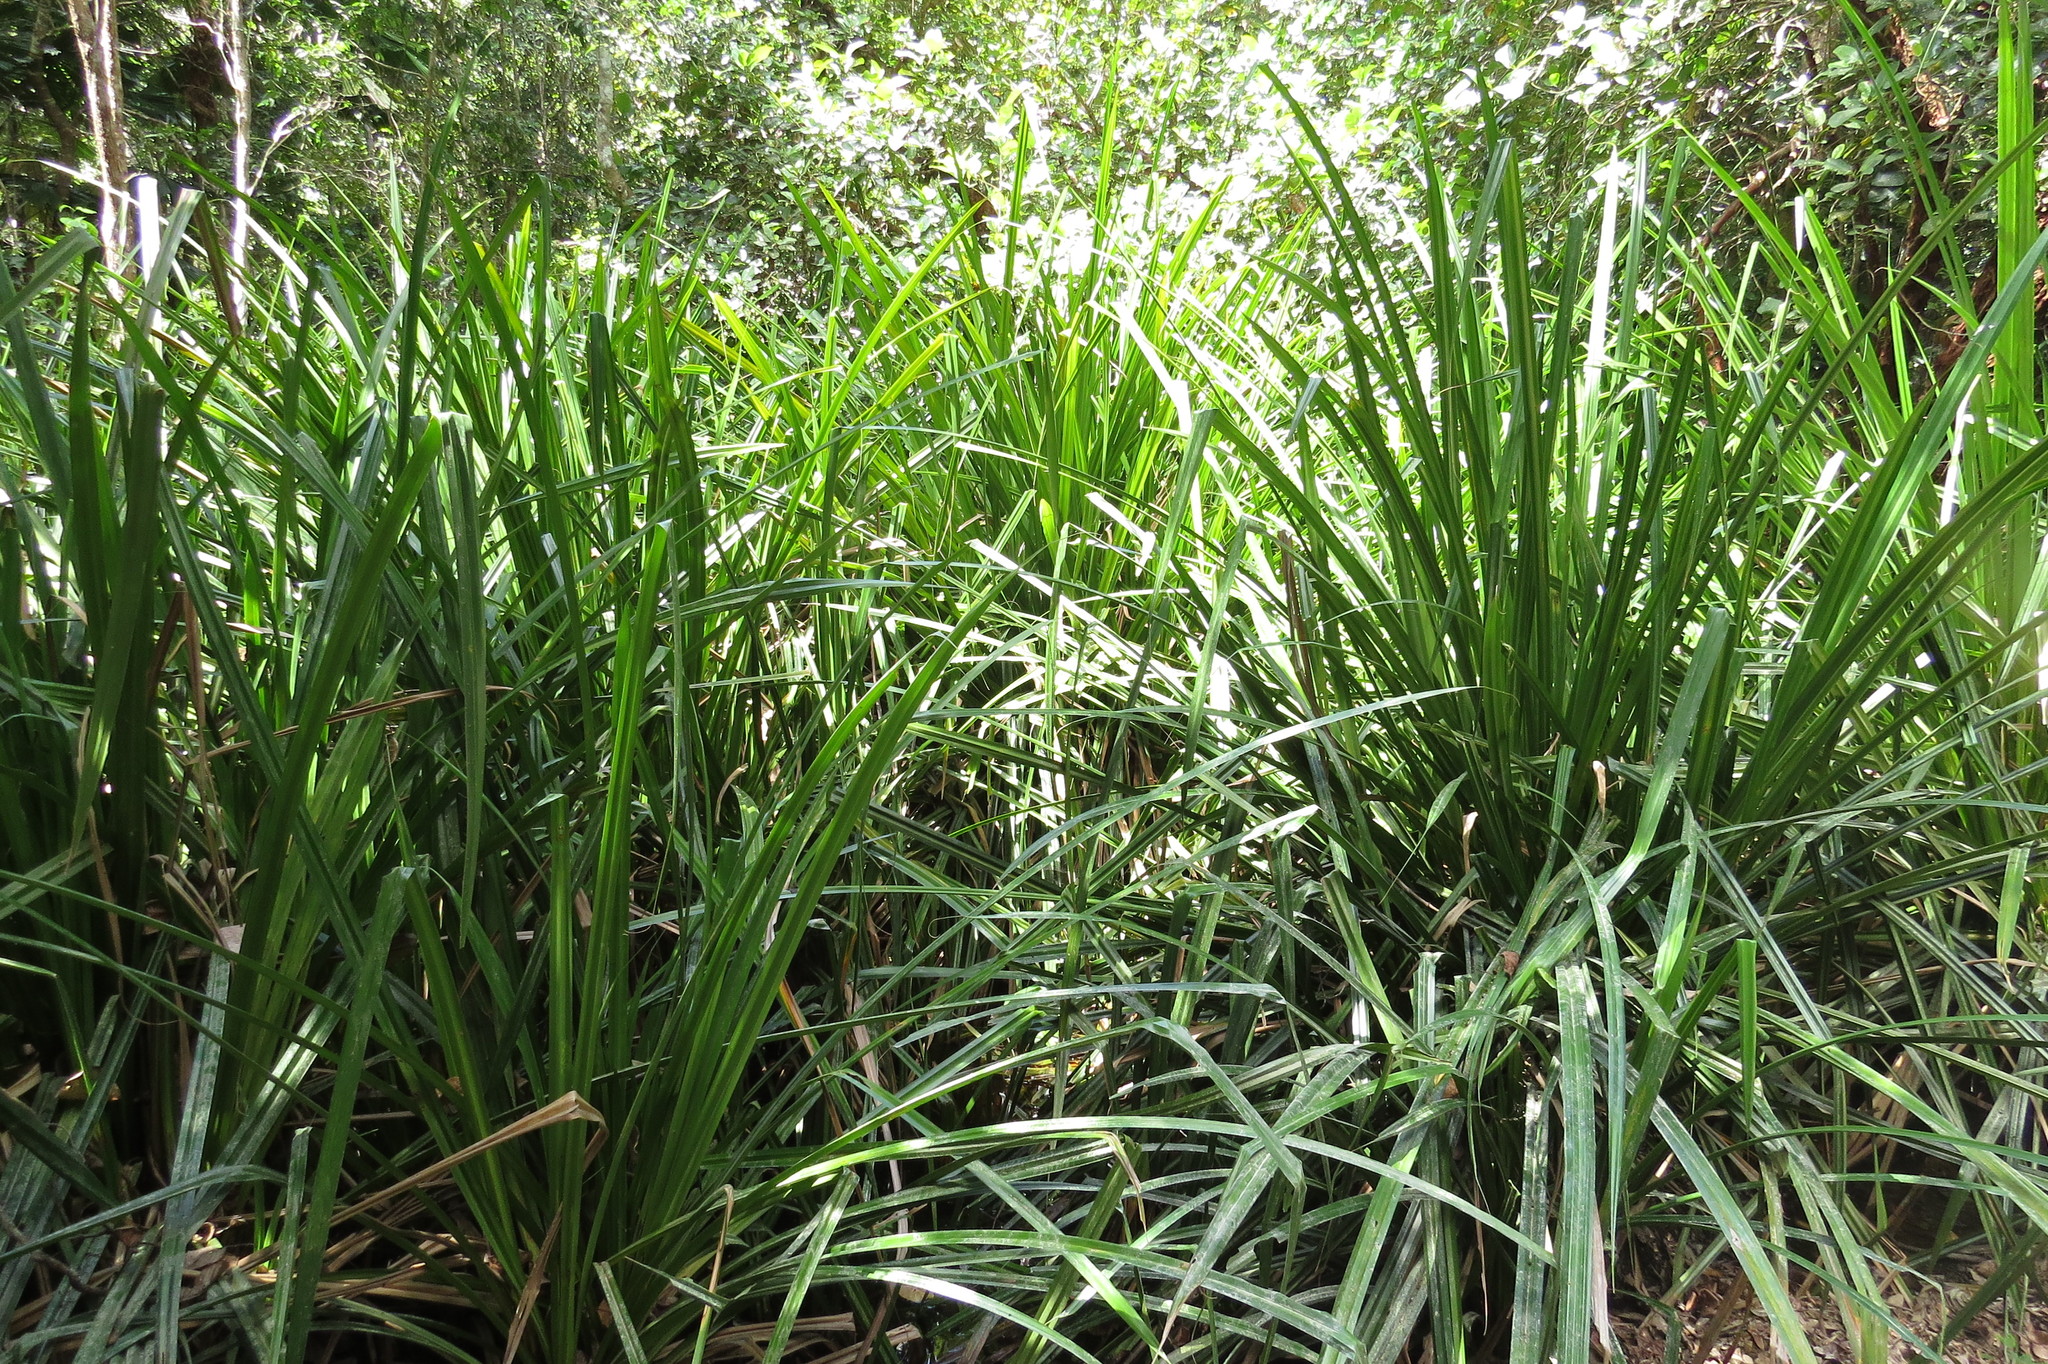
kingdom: Plantae
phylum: Tracheophyta
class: Liliopsida
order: Poales
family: Cyperaceae
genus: Scirpodendron
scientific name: Scirpodendron ghaeri
